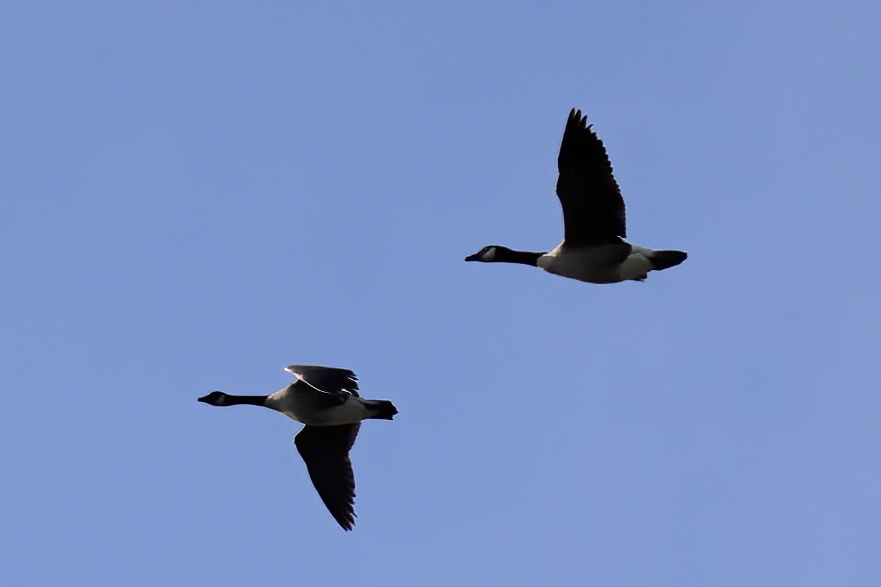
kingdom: Animalia
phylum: Chordata
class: Aves
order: Anseriformes
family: Anatidae
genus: Branta
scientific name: Branta canadensis
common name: Canada goose
